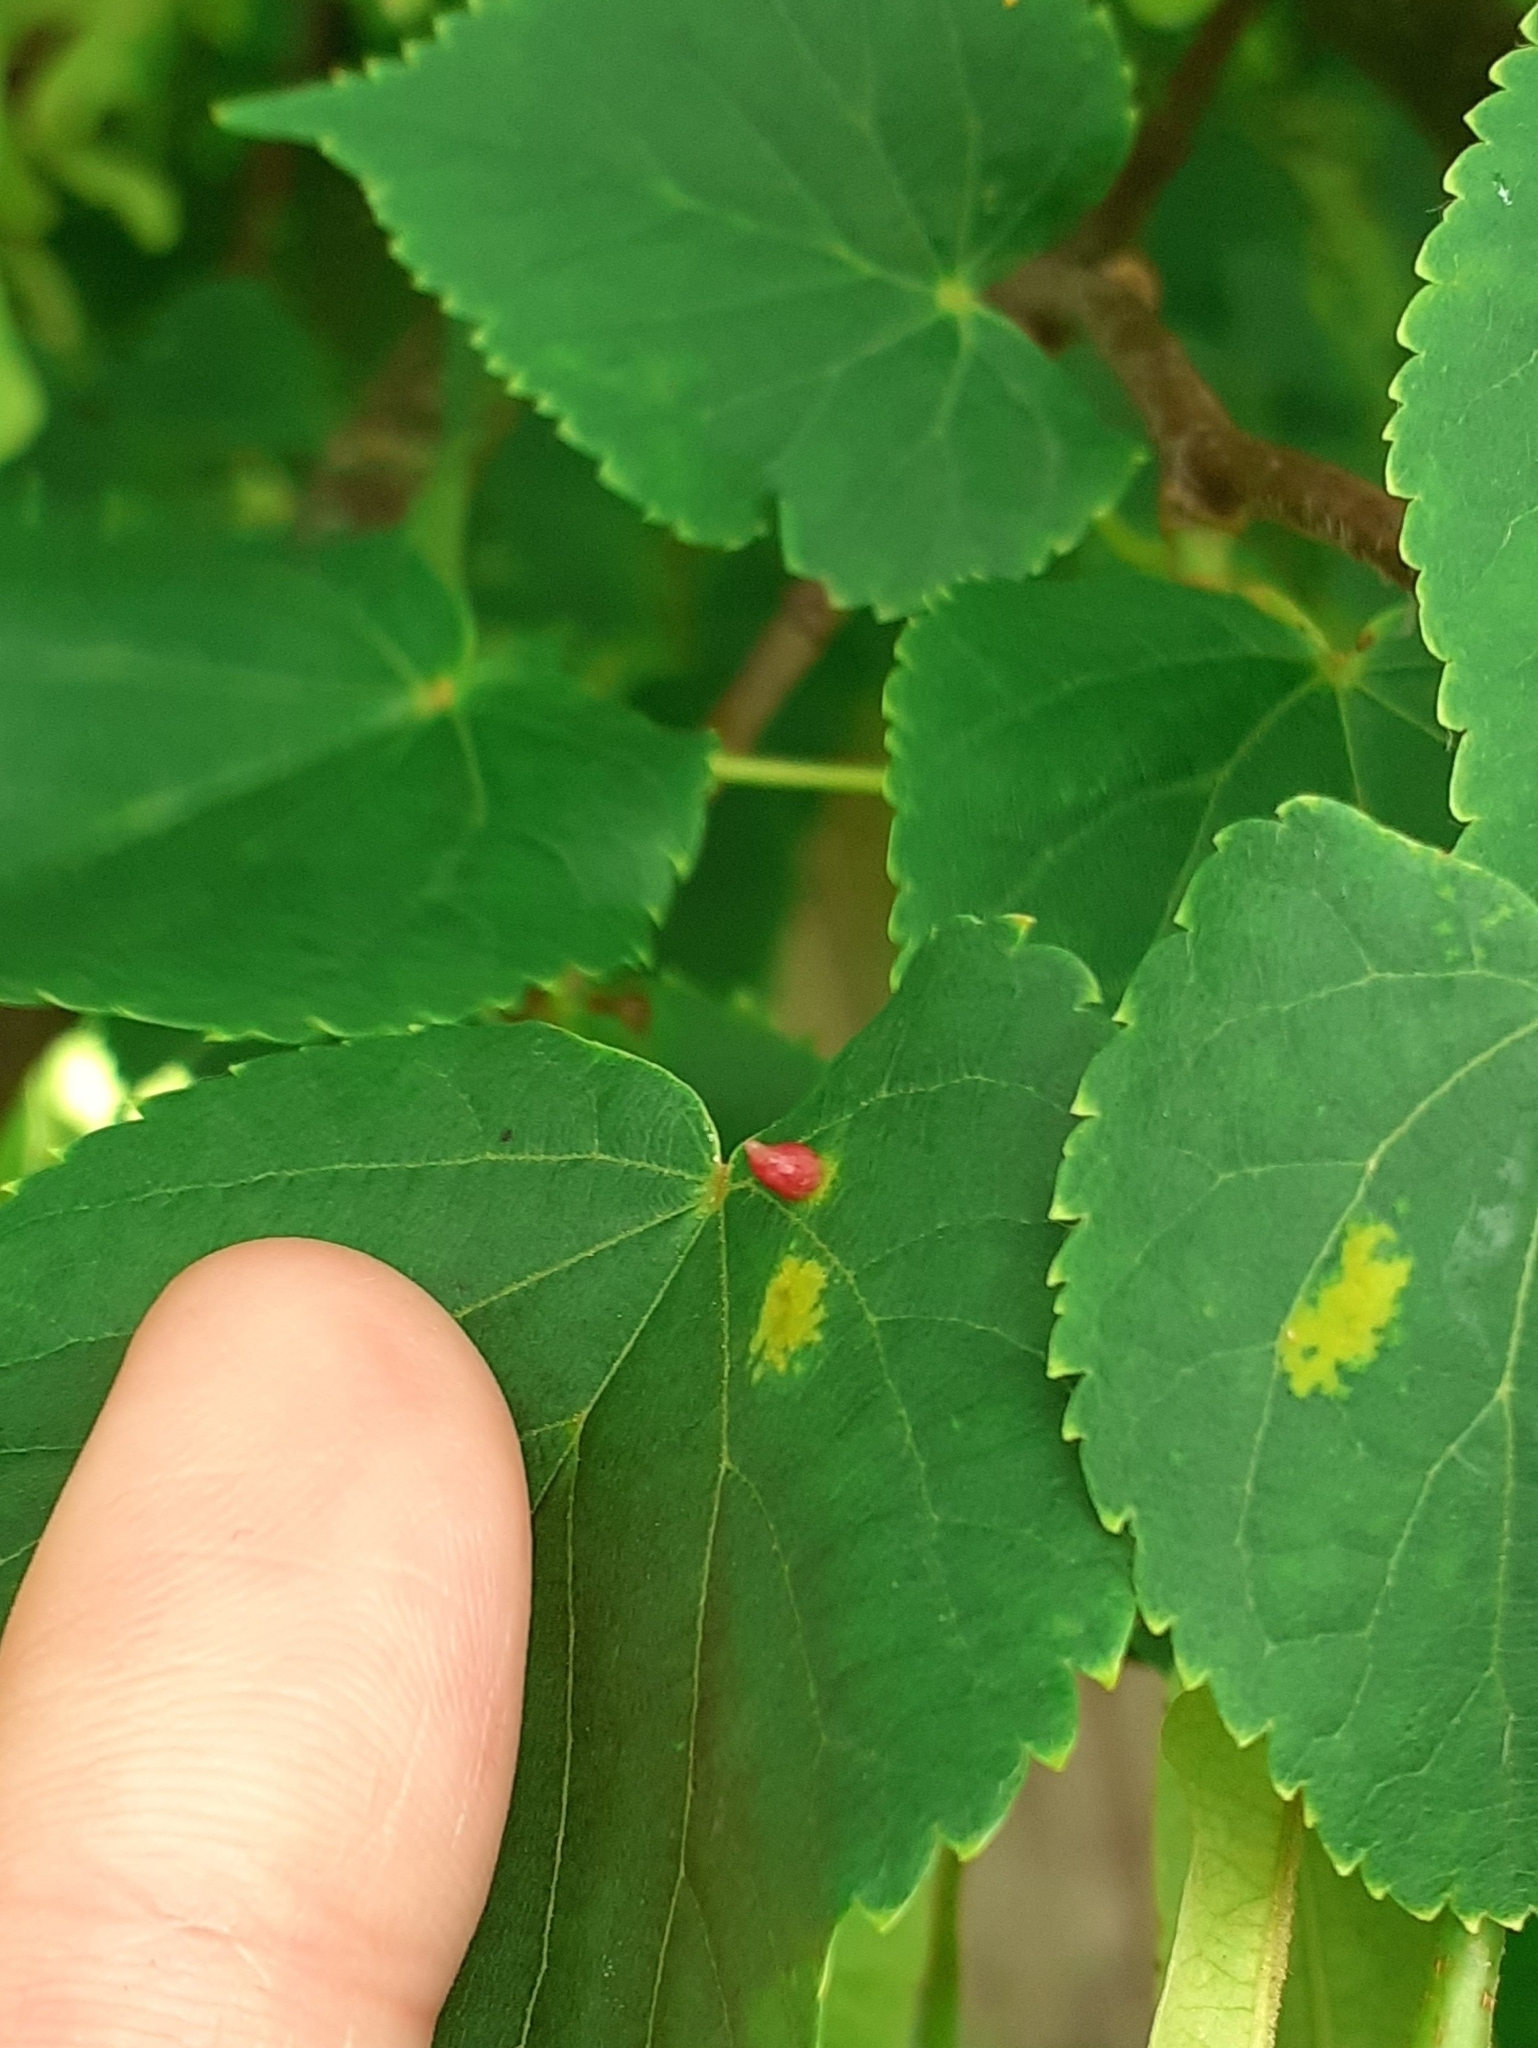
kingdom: Animalia
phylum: Arthropoda
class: Arachnida
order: Trombidiformes
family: Eriophyidae
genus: Eriophyes
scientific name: Eriophyes tiliae
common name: Red nail gall mite
